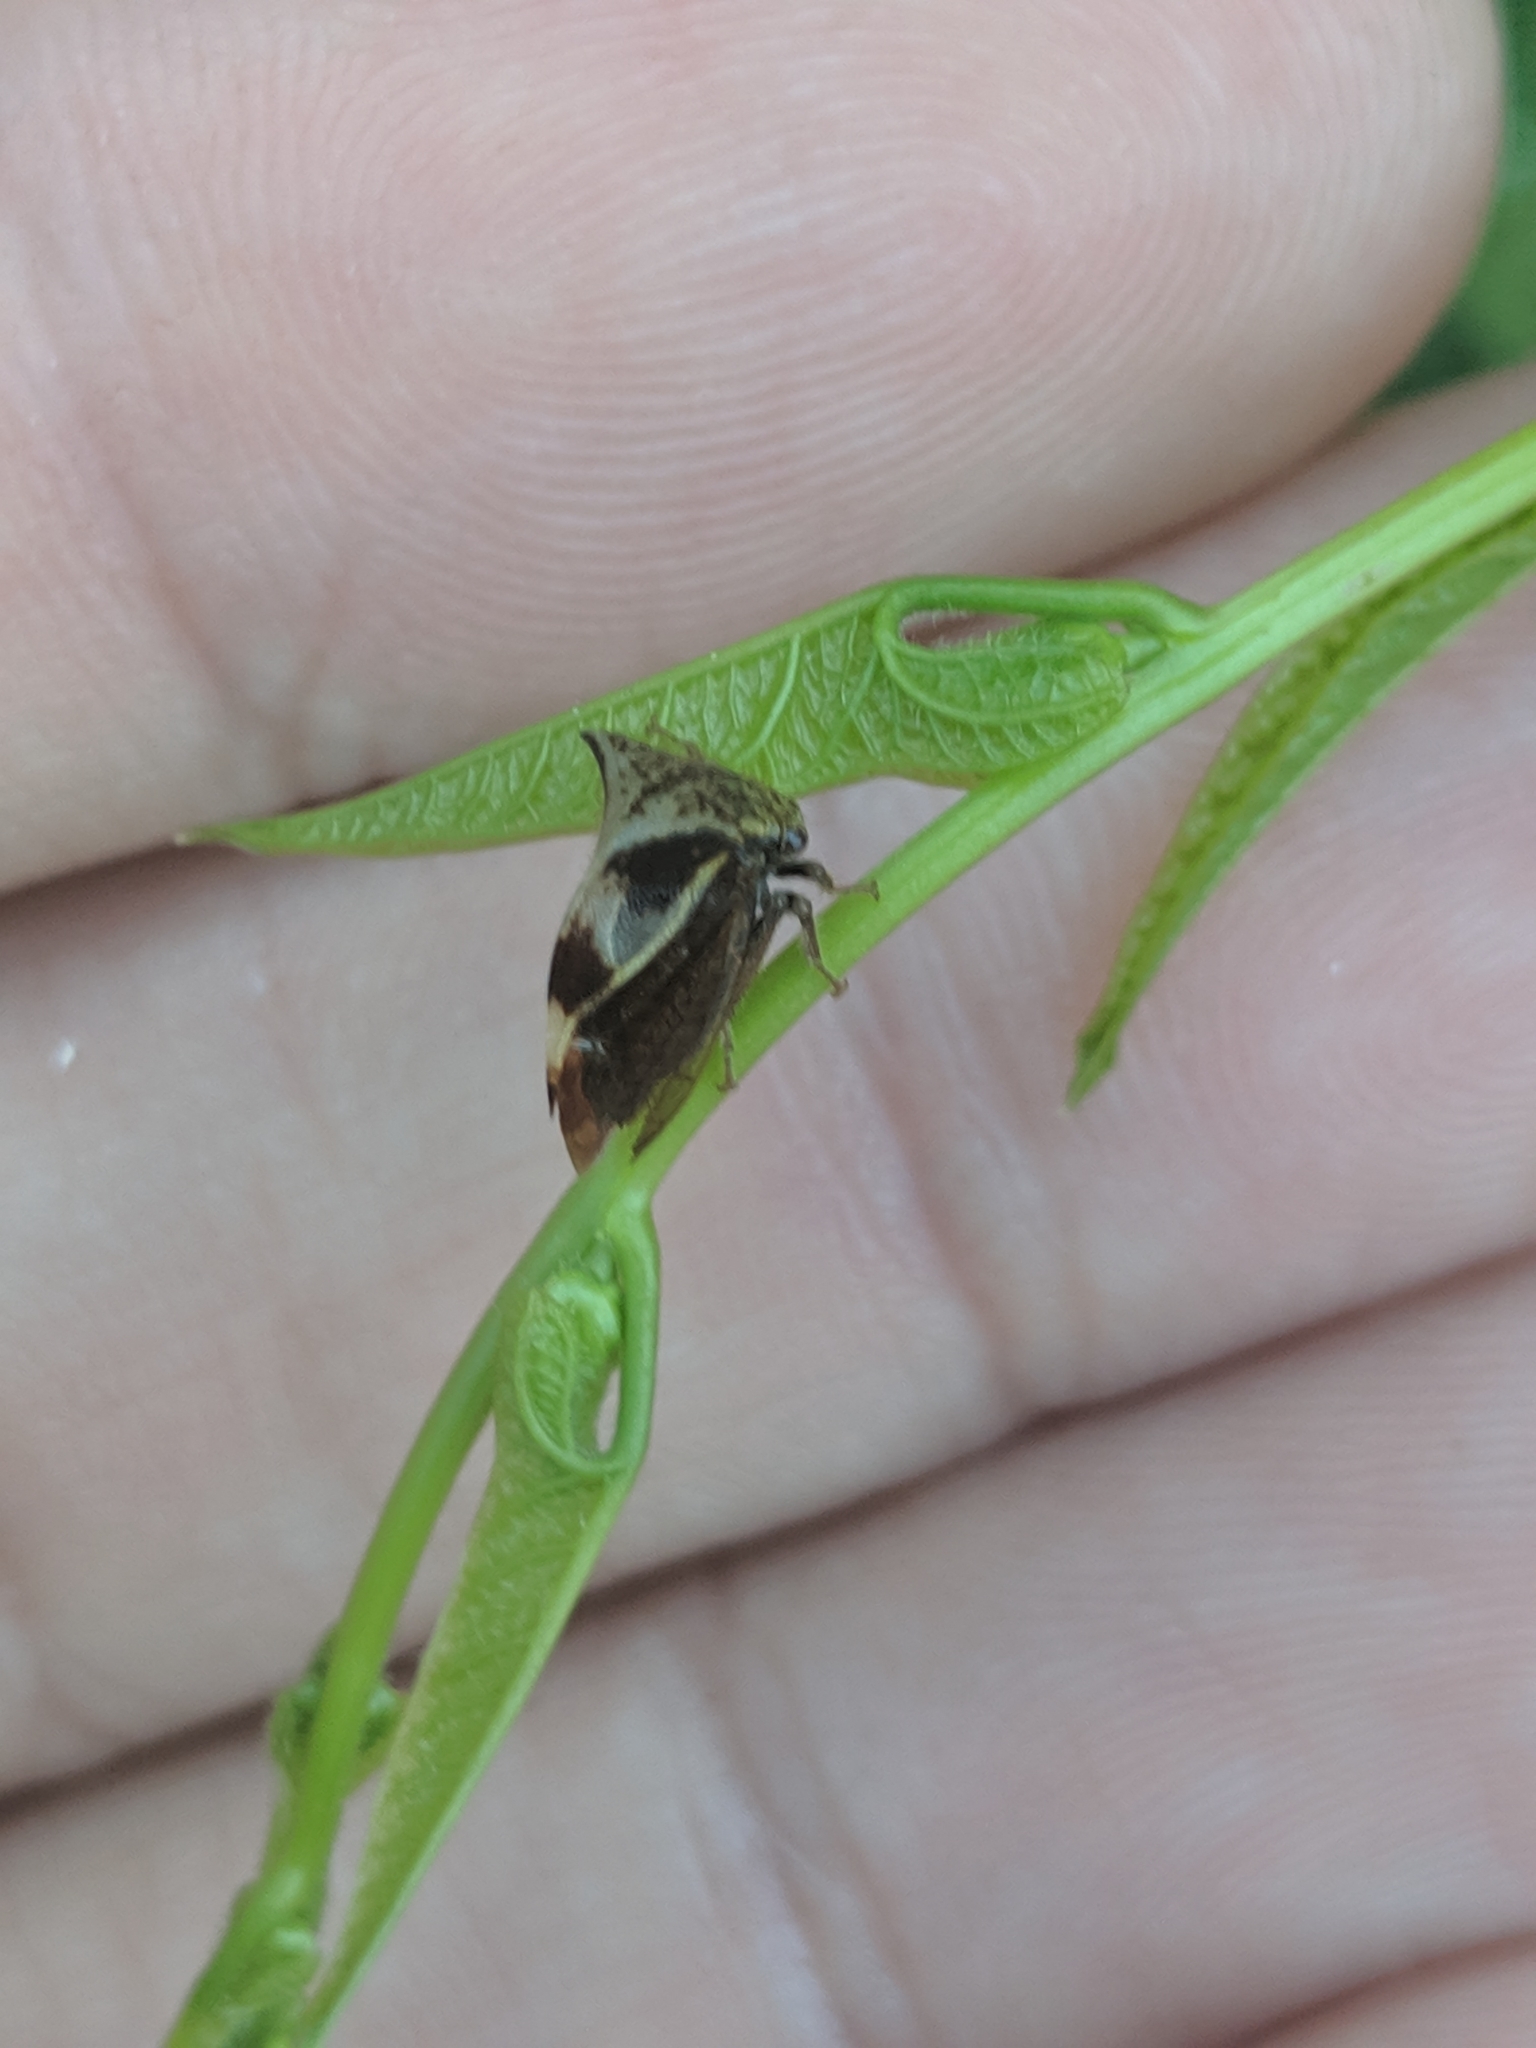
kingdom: Animalia
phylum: Arthropoda
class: Insecta
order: Hemiptera
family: Membracidae
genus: Stictocephala
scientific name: Stictocephala diceros
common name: Two-horned treehopper
